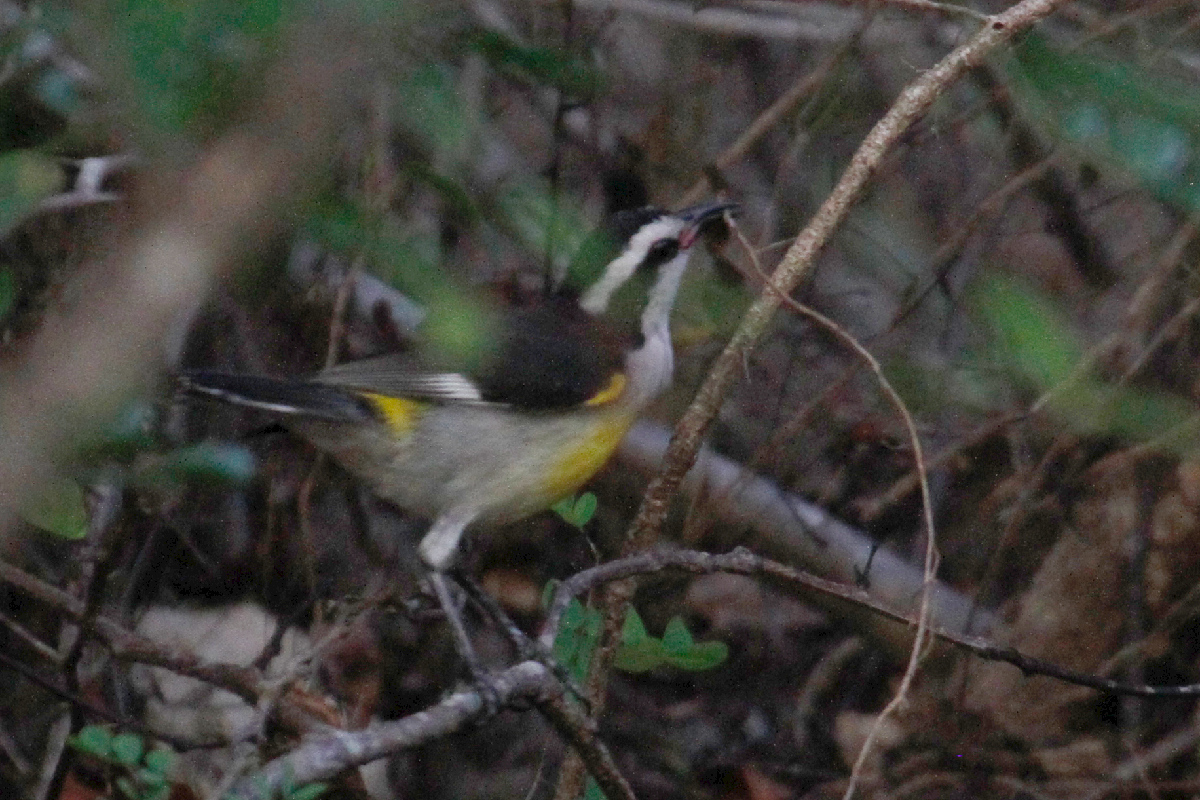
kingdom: Animalia
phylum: Chordata
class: Aves
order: Passeriformes
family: Thraupidae
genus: Coereba
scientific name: Coereba flaveola
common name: Bananaquit
